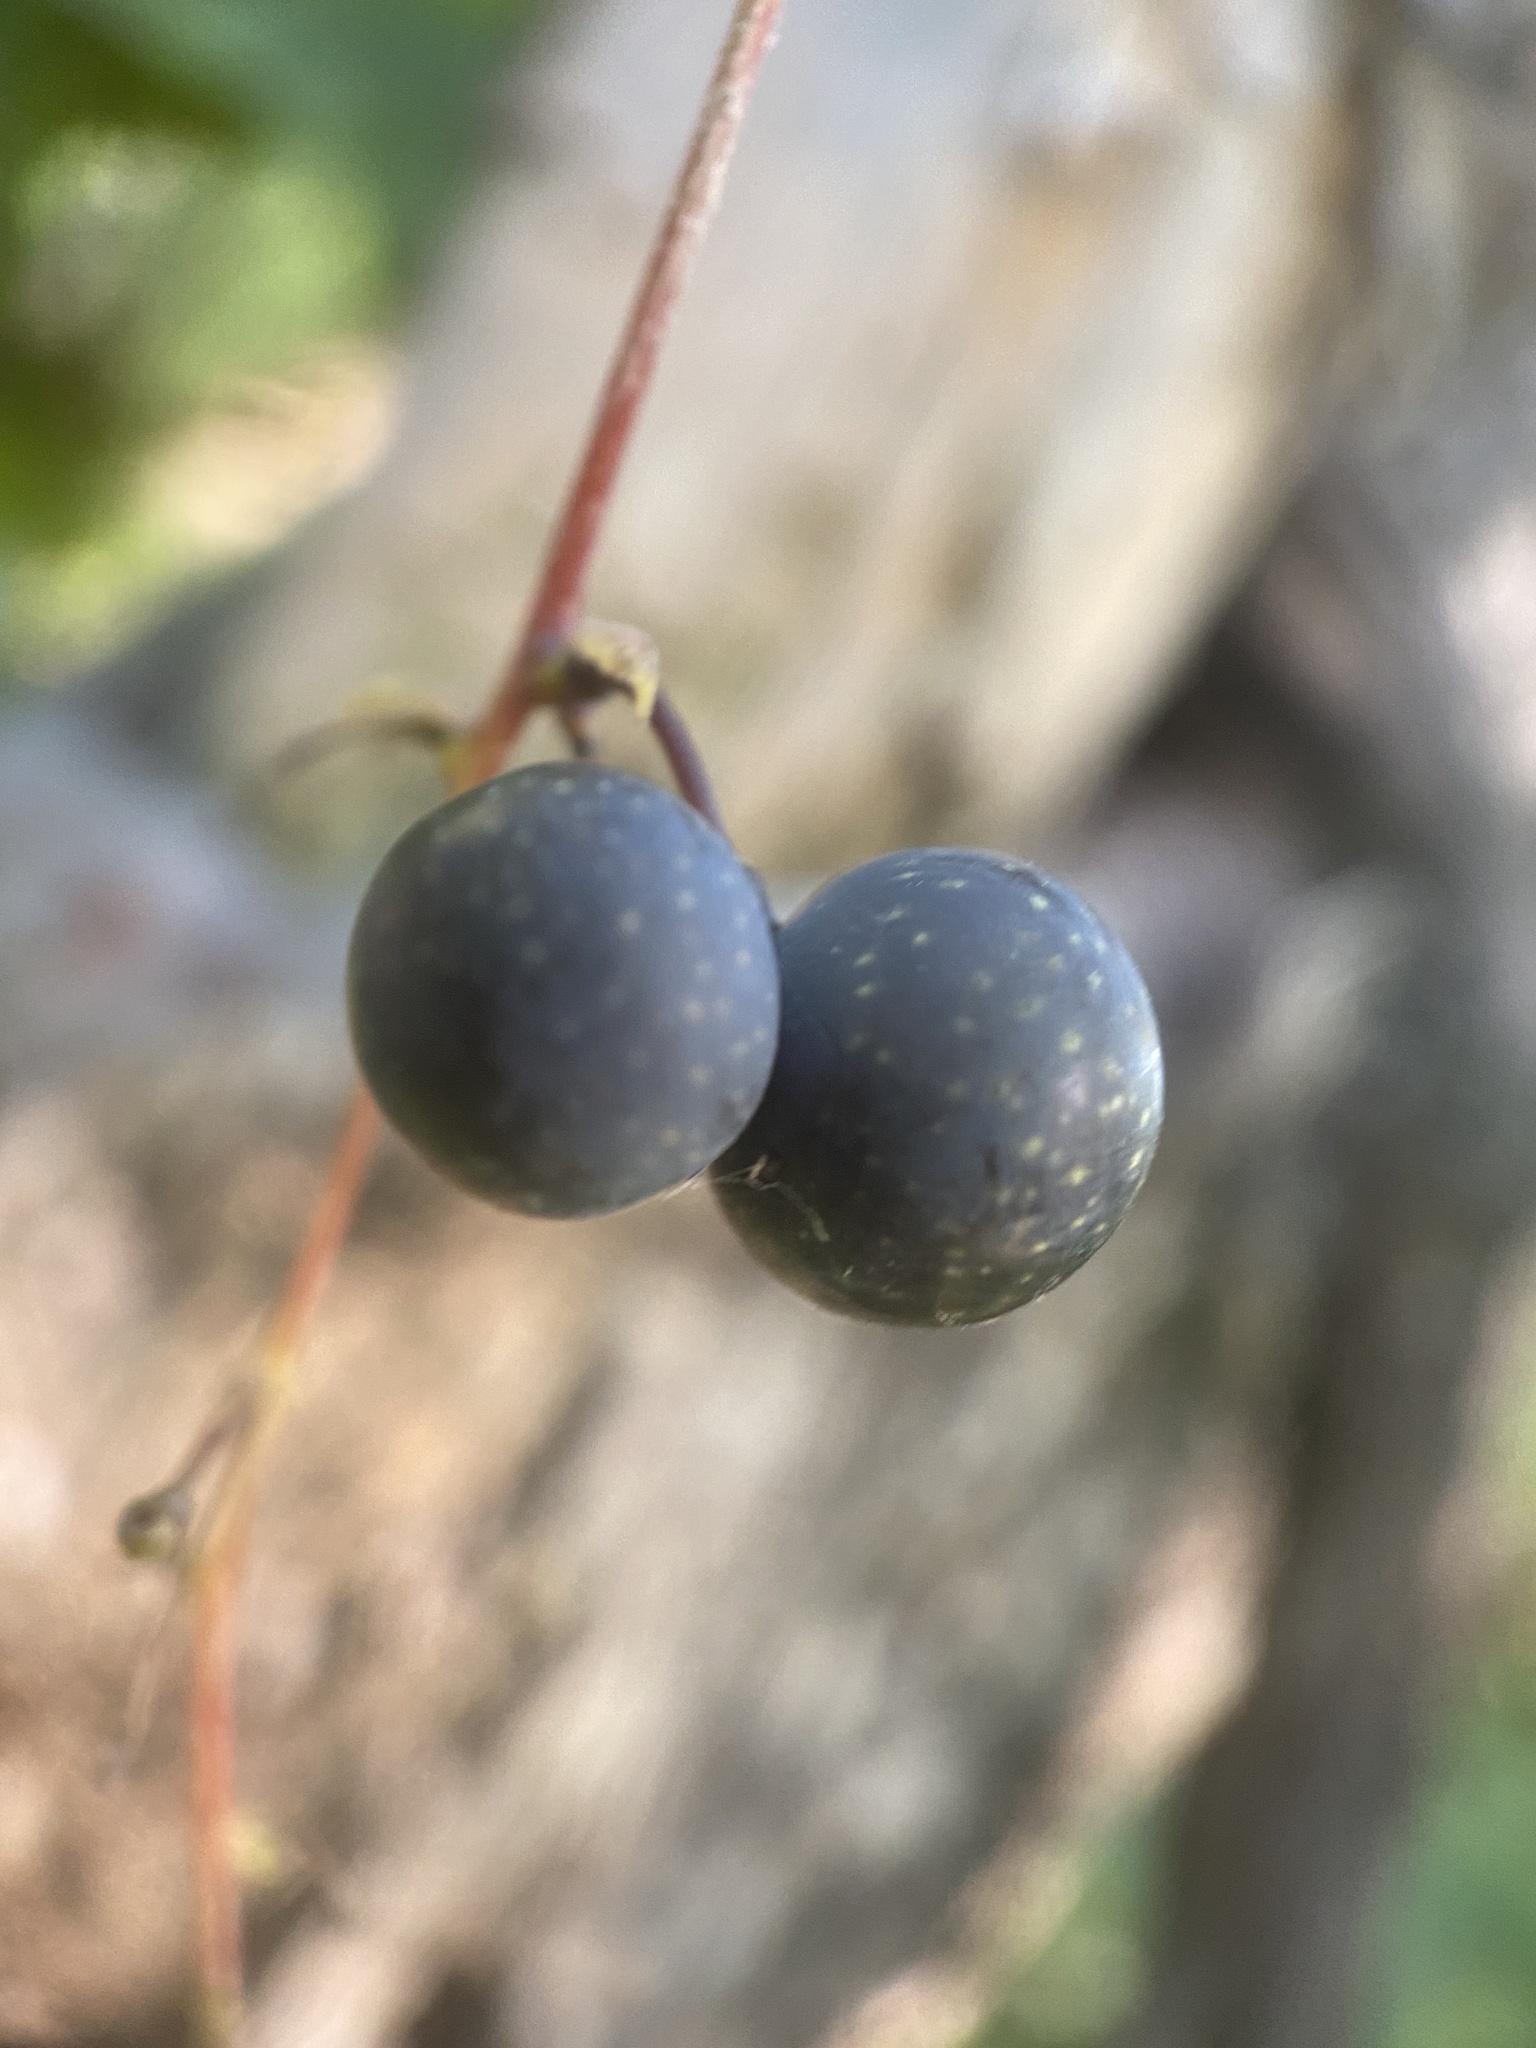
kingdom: Plantae
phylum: Tracheophyta
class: Magnoliopsida
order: Ranunculales
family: Menispermaceae
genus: Menispermum
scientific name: Menispermum canadense
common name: Moonseed
